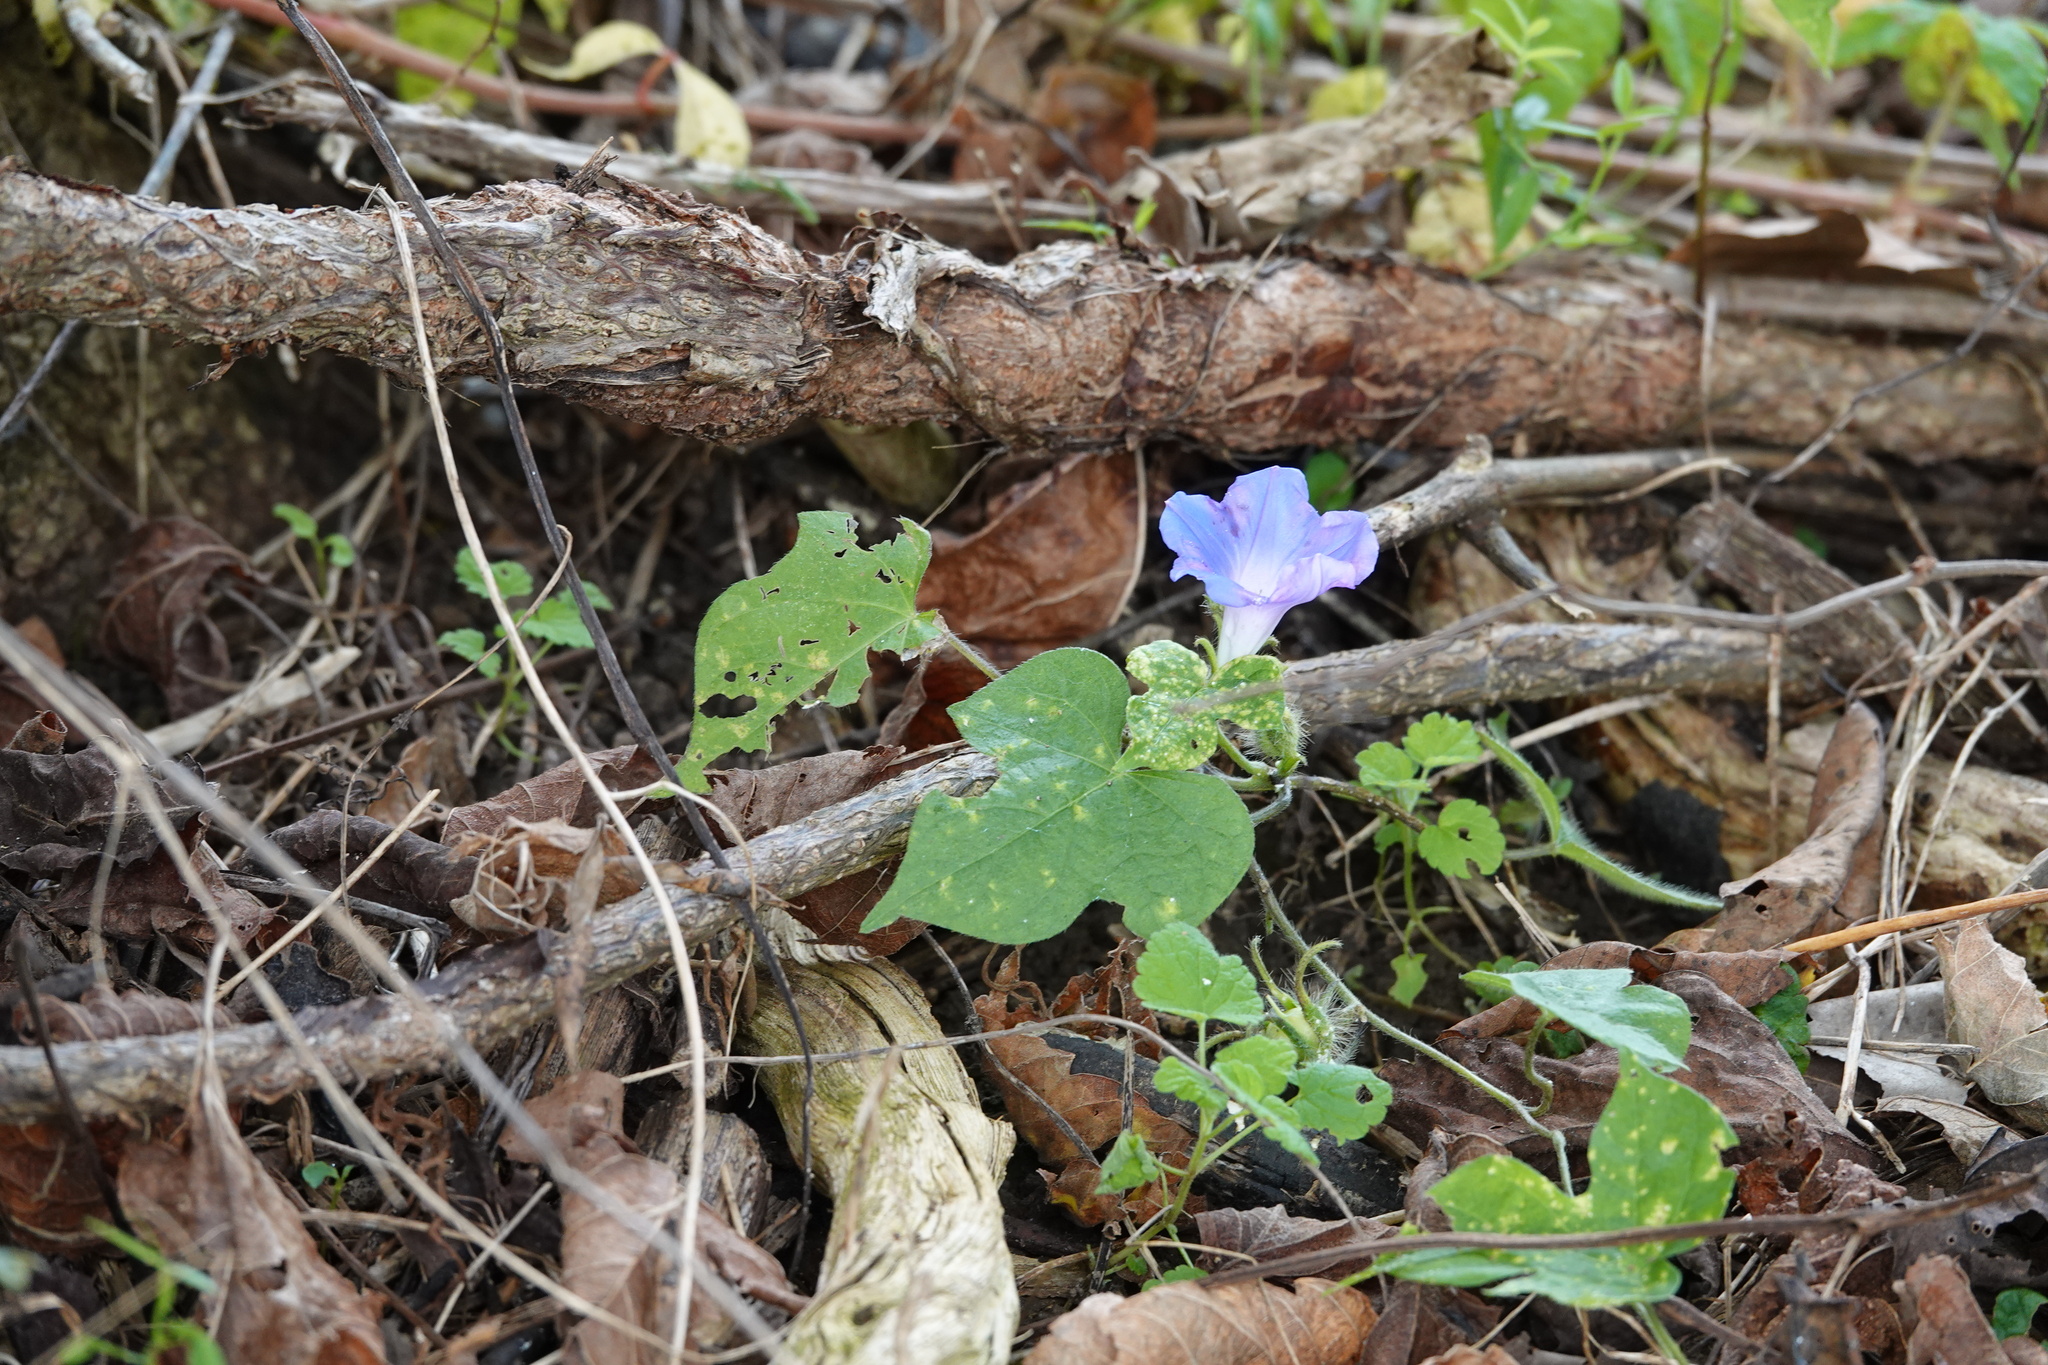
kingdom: Plantae
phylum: Tracheophyta
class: Magnoliopsida
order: Solanales
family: Convolvulaceae
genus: Ipomoea
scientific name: Ipomoea hederacea
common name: Ivy-leaved morning-glory
